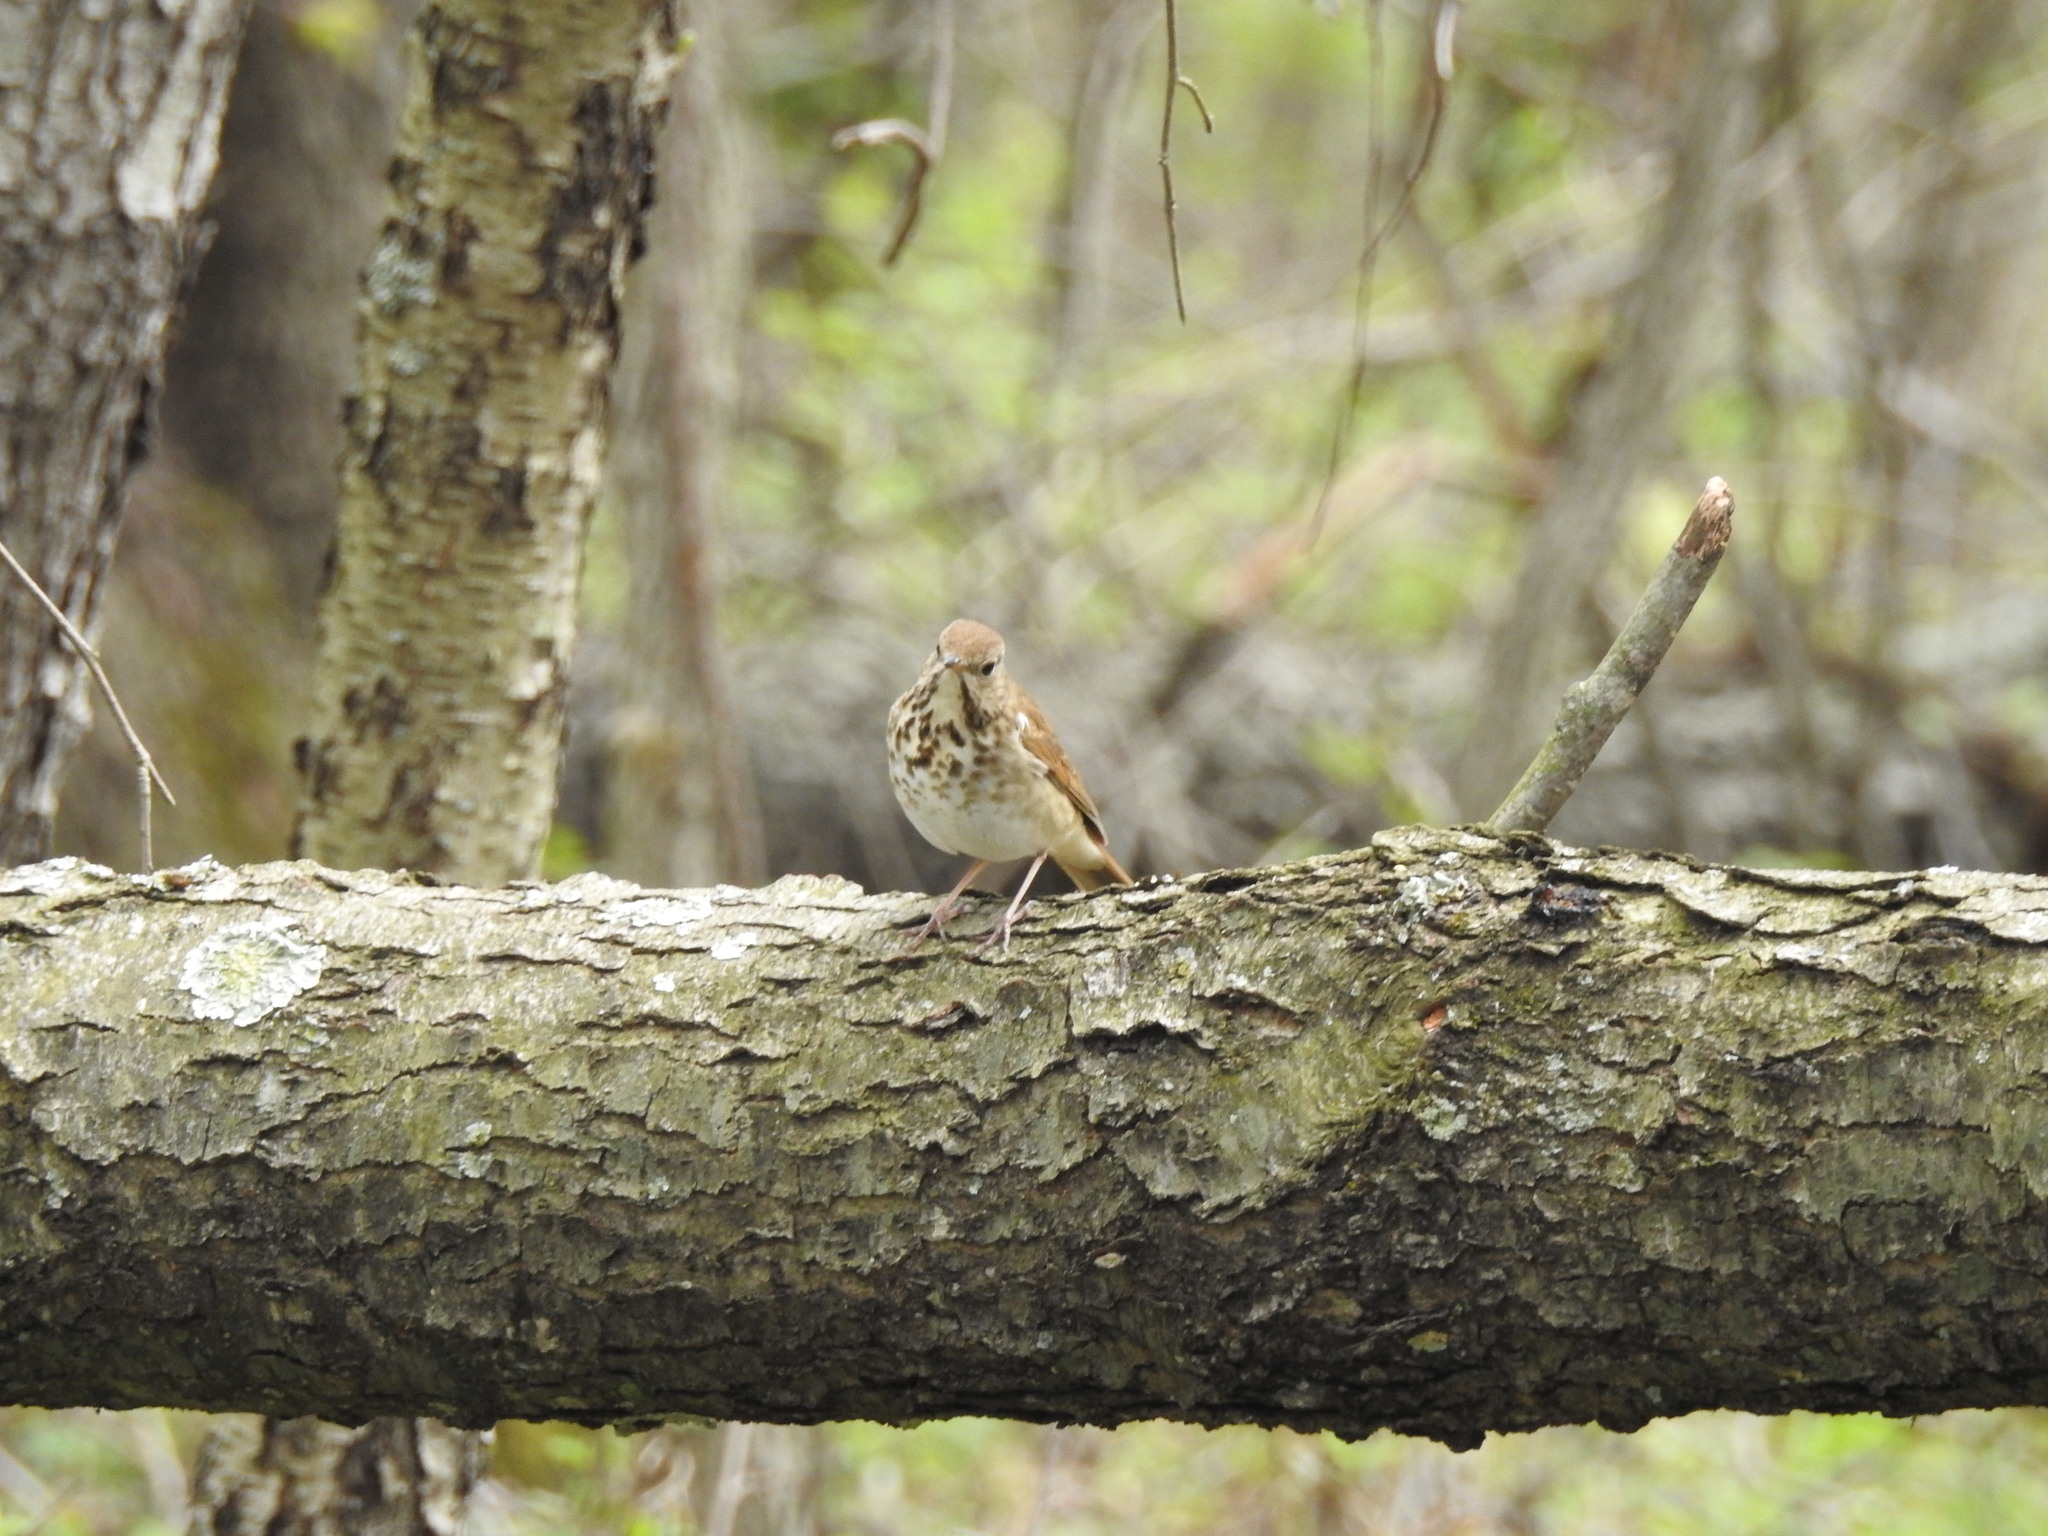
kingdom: Animalia
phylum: Chordata
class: Aves
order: Passeriformes
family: Turdidae
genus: Catharus
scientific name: Catharus guttatus
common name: Hermit thrush
